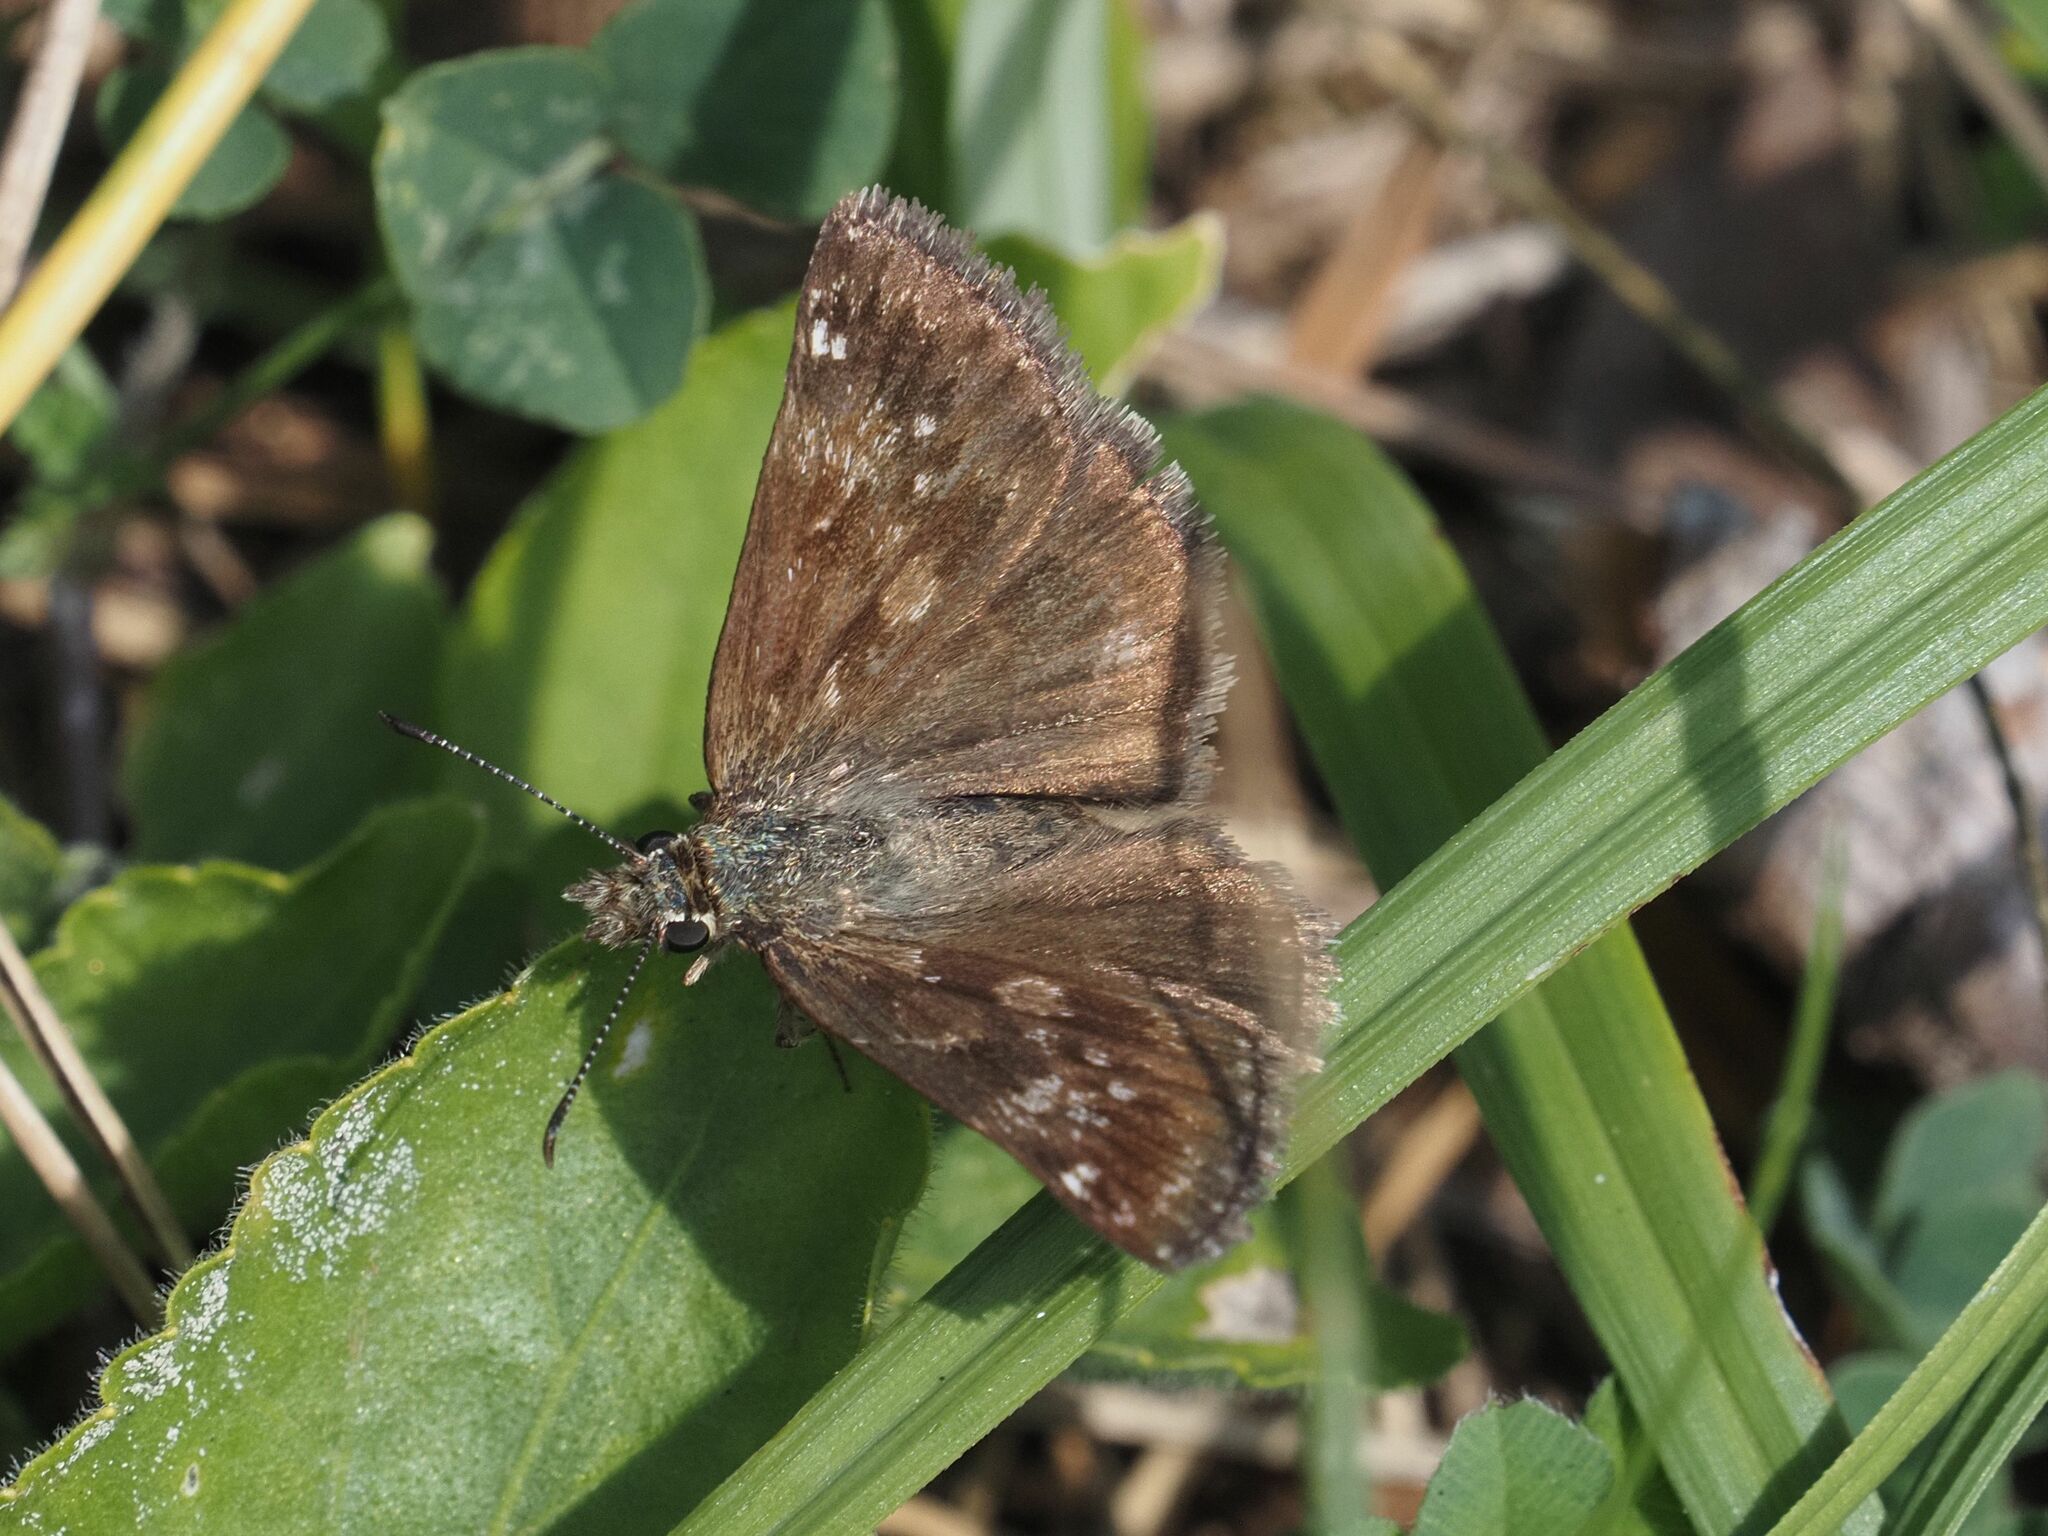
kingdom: Animalia
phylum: Arthropoda
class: Insecta
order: Lepidoptera
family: Hesperiidae
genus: Erynnis
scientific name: Erynnis tages
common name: Dingy skipper
